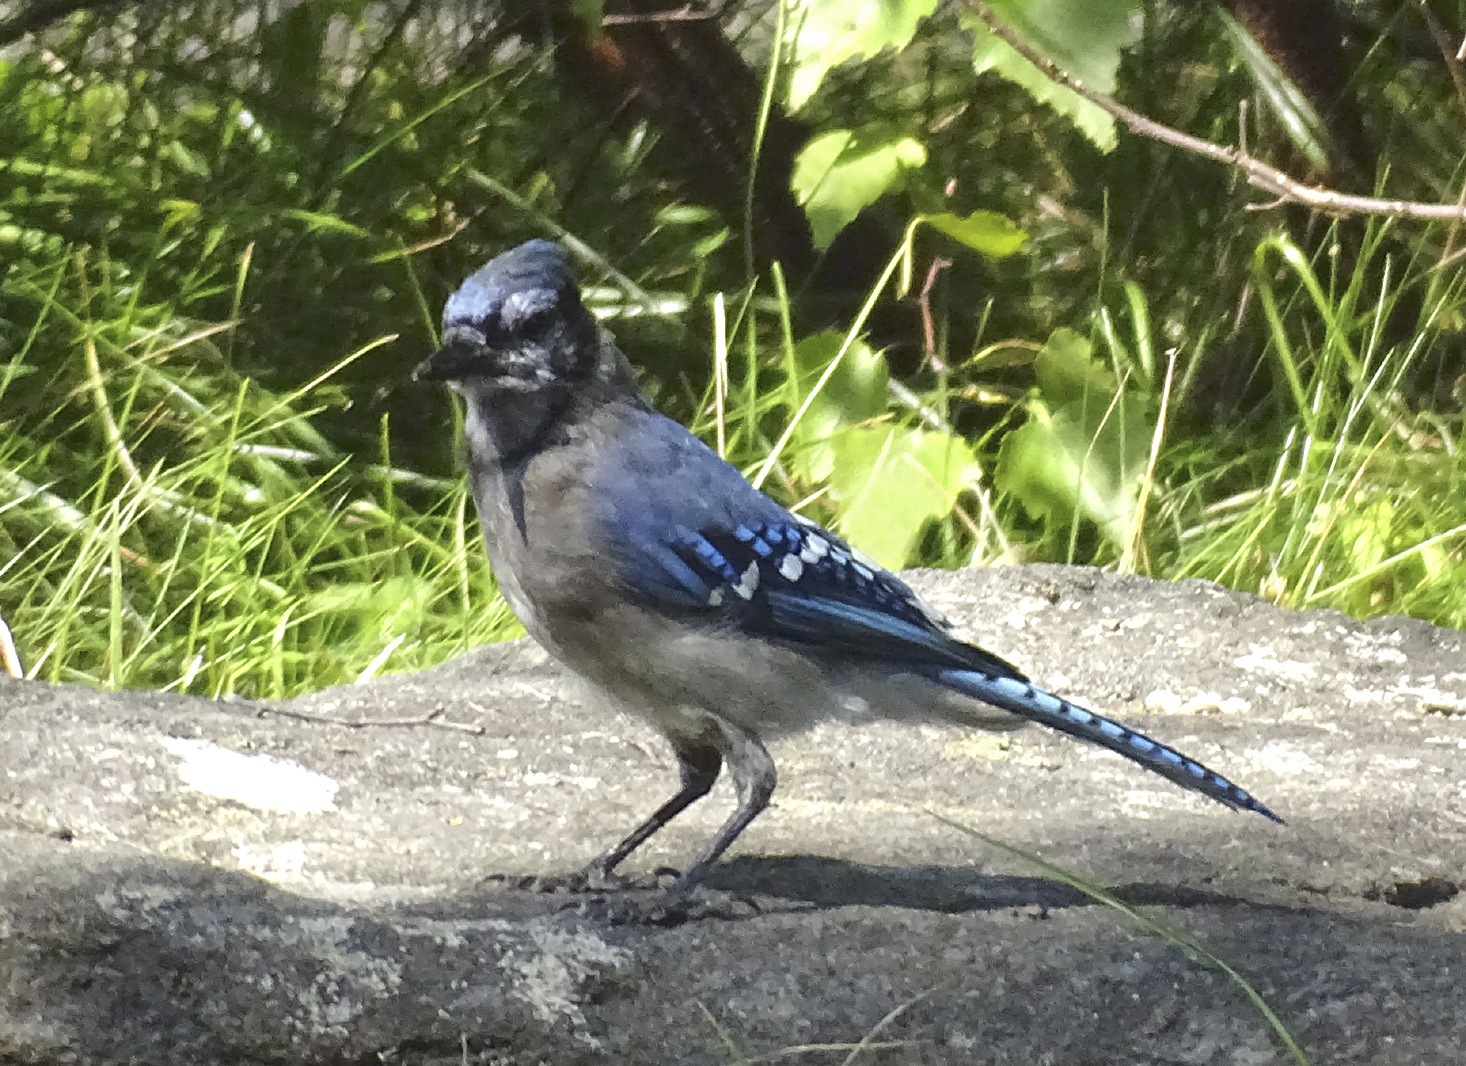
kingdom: Animalia
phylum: Chordata
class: Aves
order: Passeriformes
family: Corvidae
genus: Cyanocitta
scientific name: Cyanocitta cristata
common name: Blue jay
